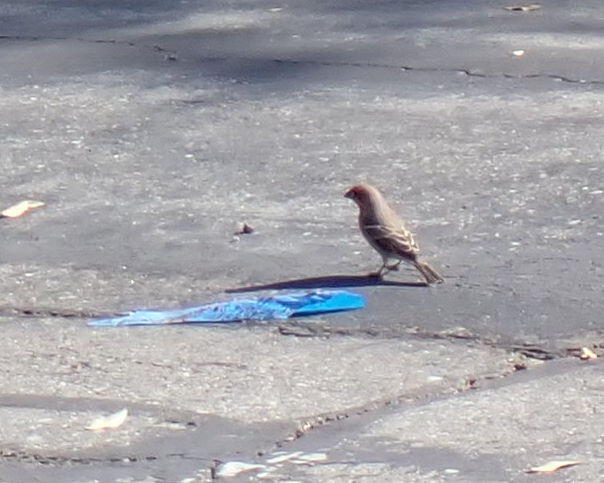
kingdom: Animalia
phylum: Chordata
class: Aves
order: Passeriformes
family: Fringillidae
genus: Haemorhous
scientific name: Haemorhous mexicanus
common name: House finch
